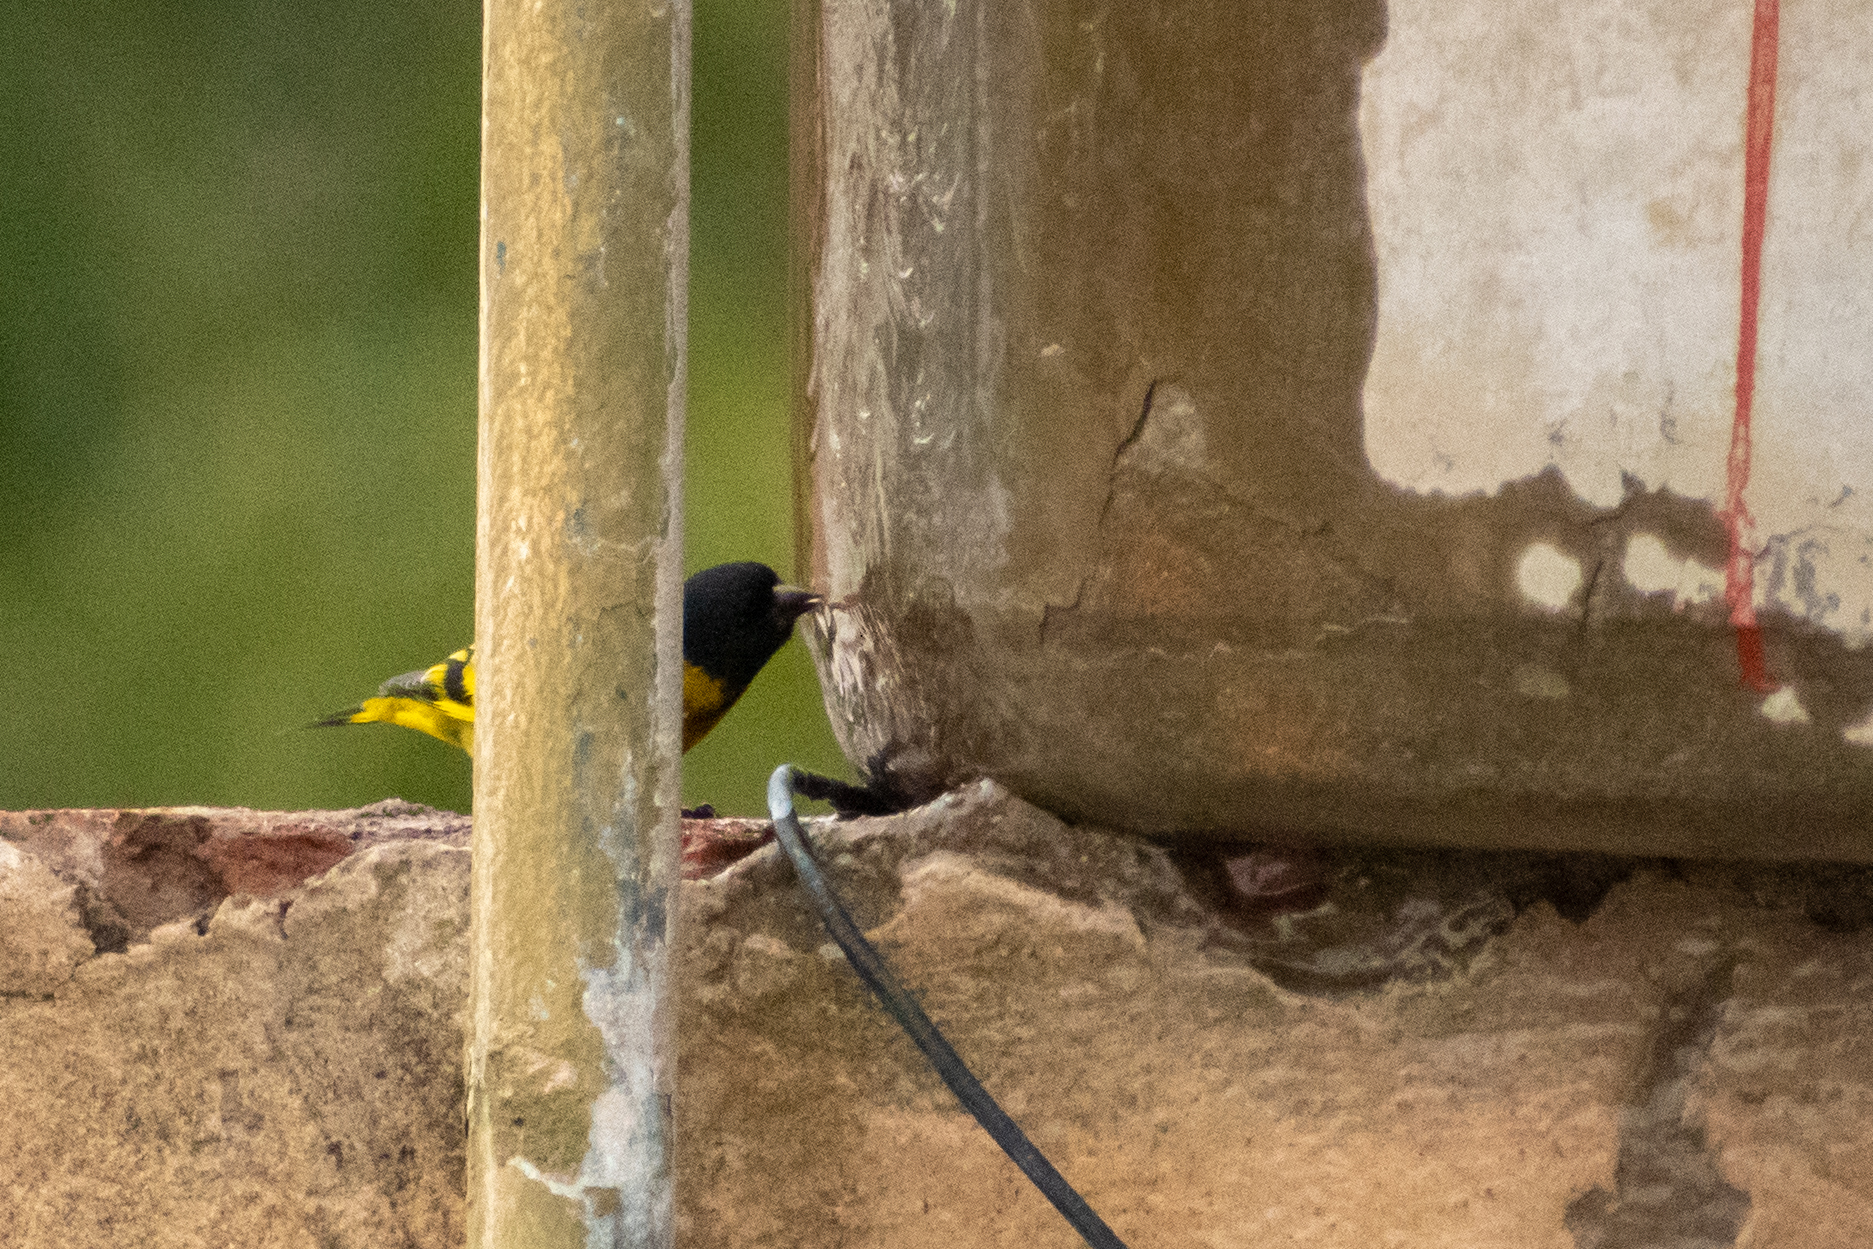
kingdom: Animalia
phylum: Chordata
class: Aves
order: Passeriformes
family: Fringillidae
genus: Spinus
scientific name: Spinus magellanicus
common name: Hooded siskin
